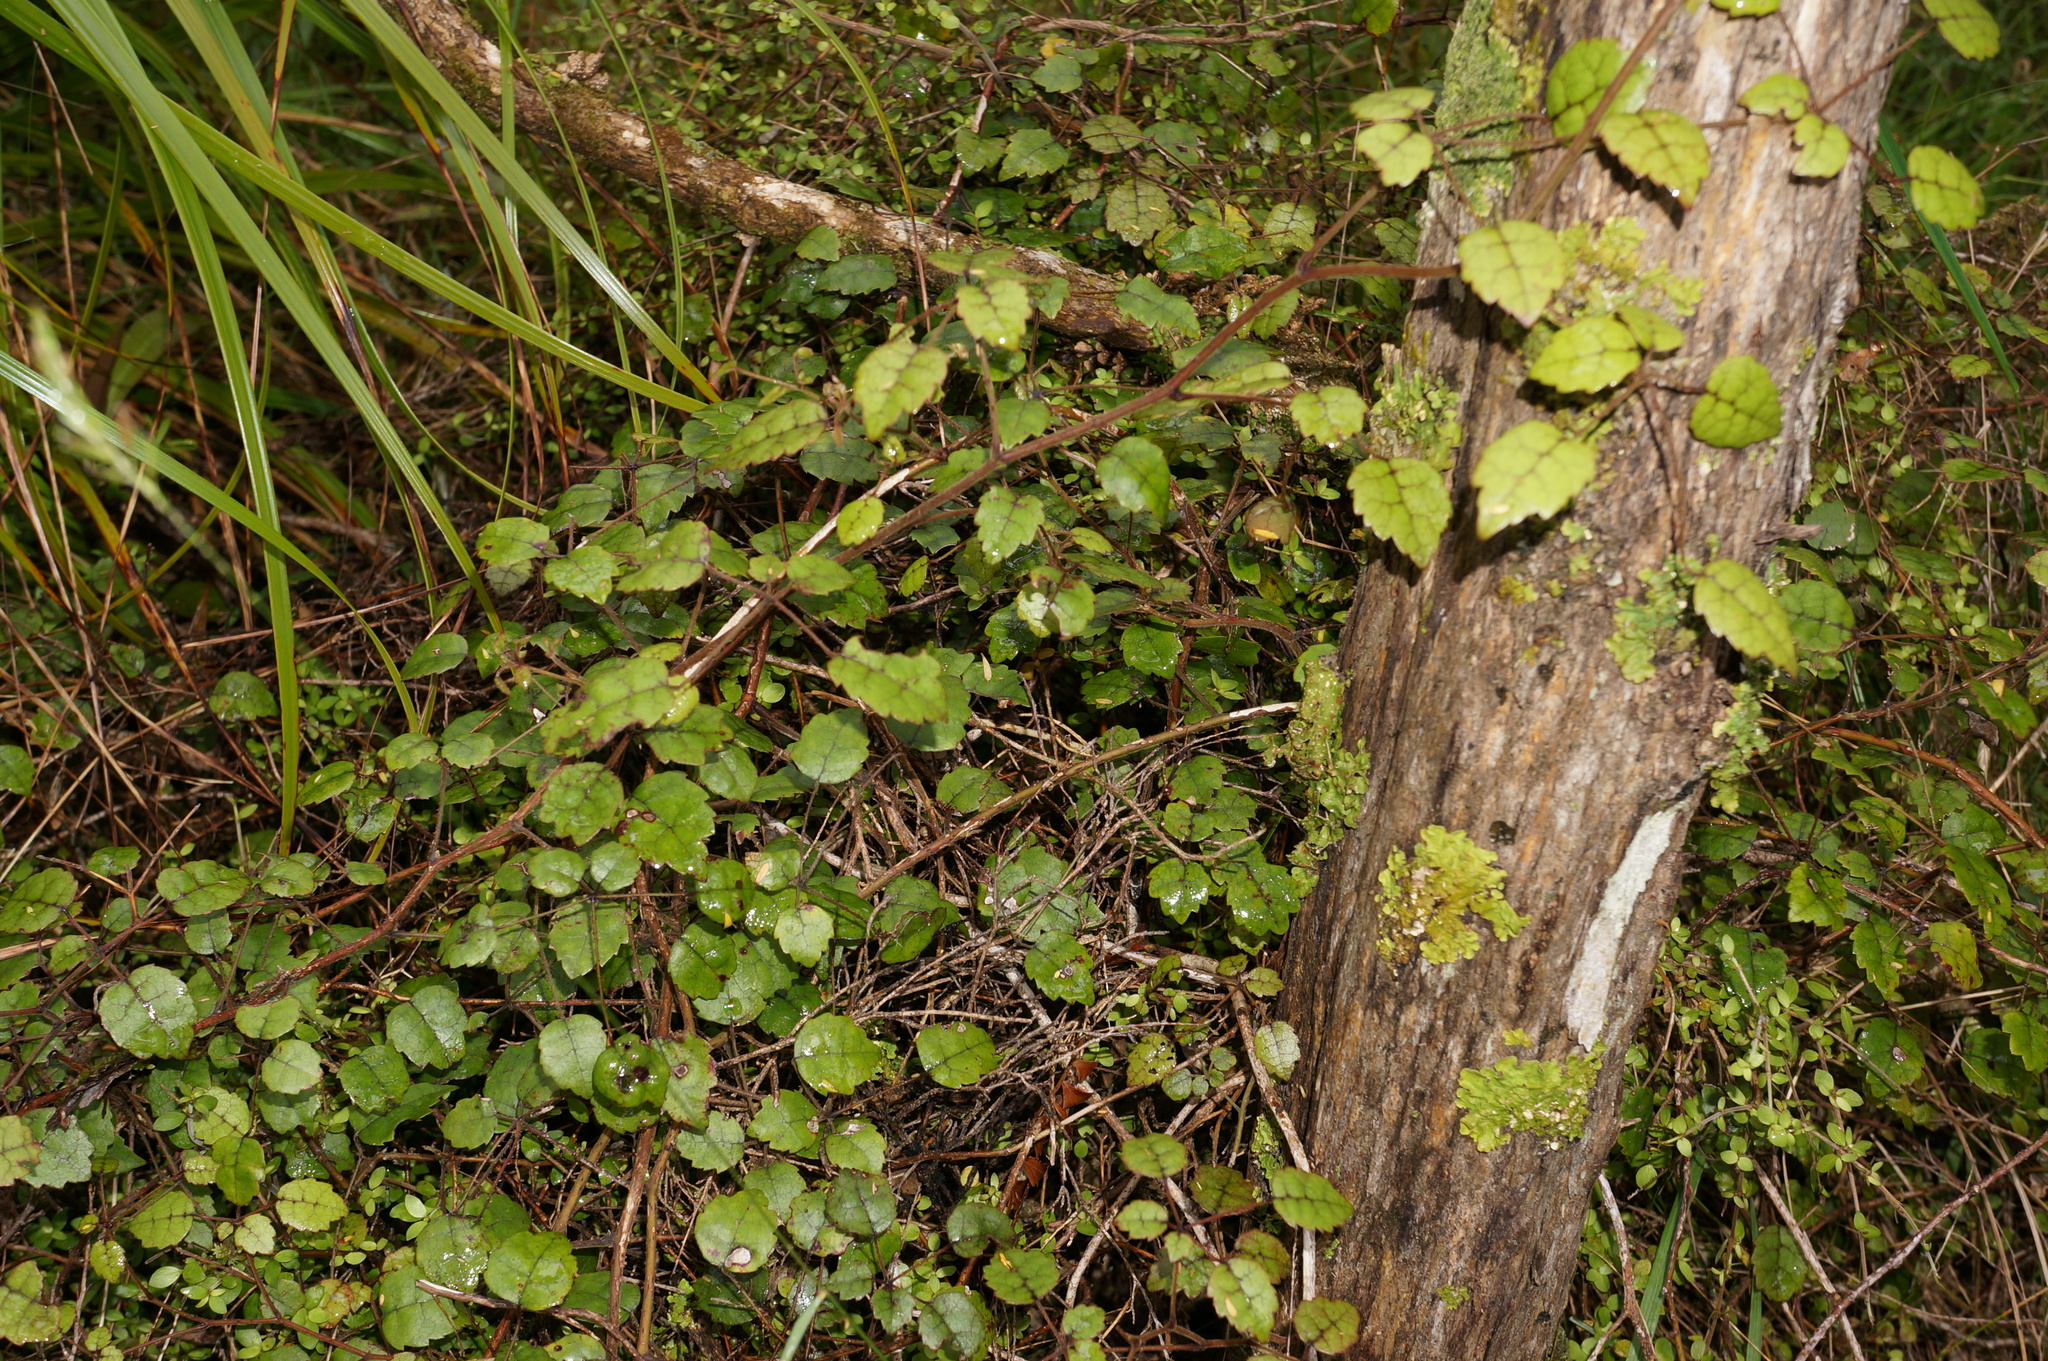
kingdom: Plantae
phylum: Tracheophyta
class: Magnoliopsida
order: Rosales
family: Rosaceae
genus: Rubus
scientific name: Rubus australis
